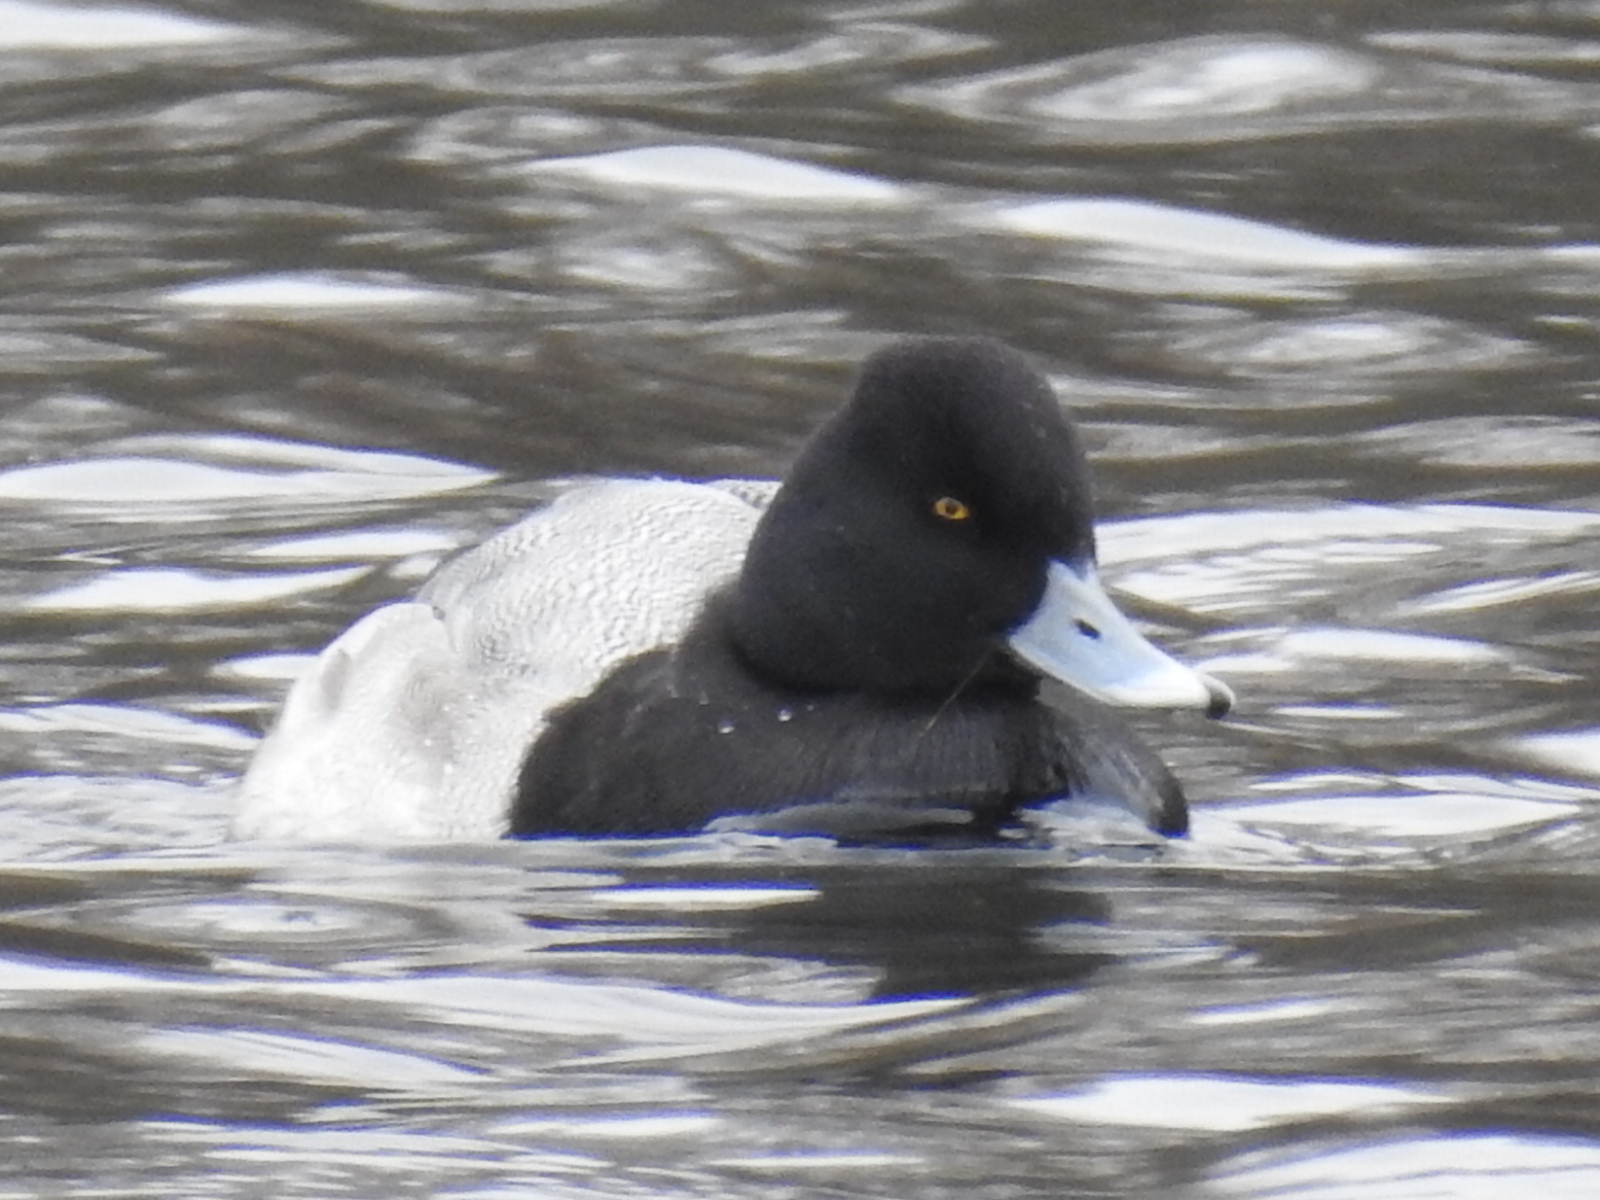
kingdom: Animalia
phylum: Chordata
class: Aves
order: Anseriformes
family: Anatidae
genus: Aythya
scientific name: Aythya affinis
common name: Lesser scaup
